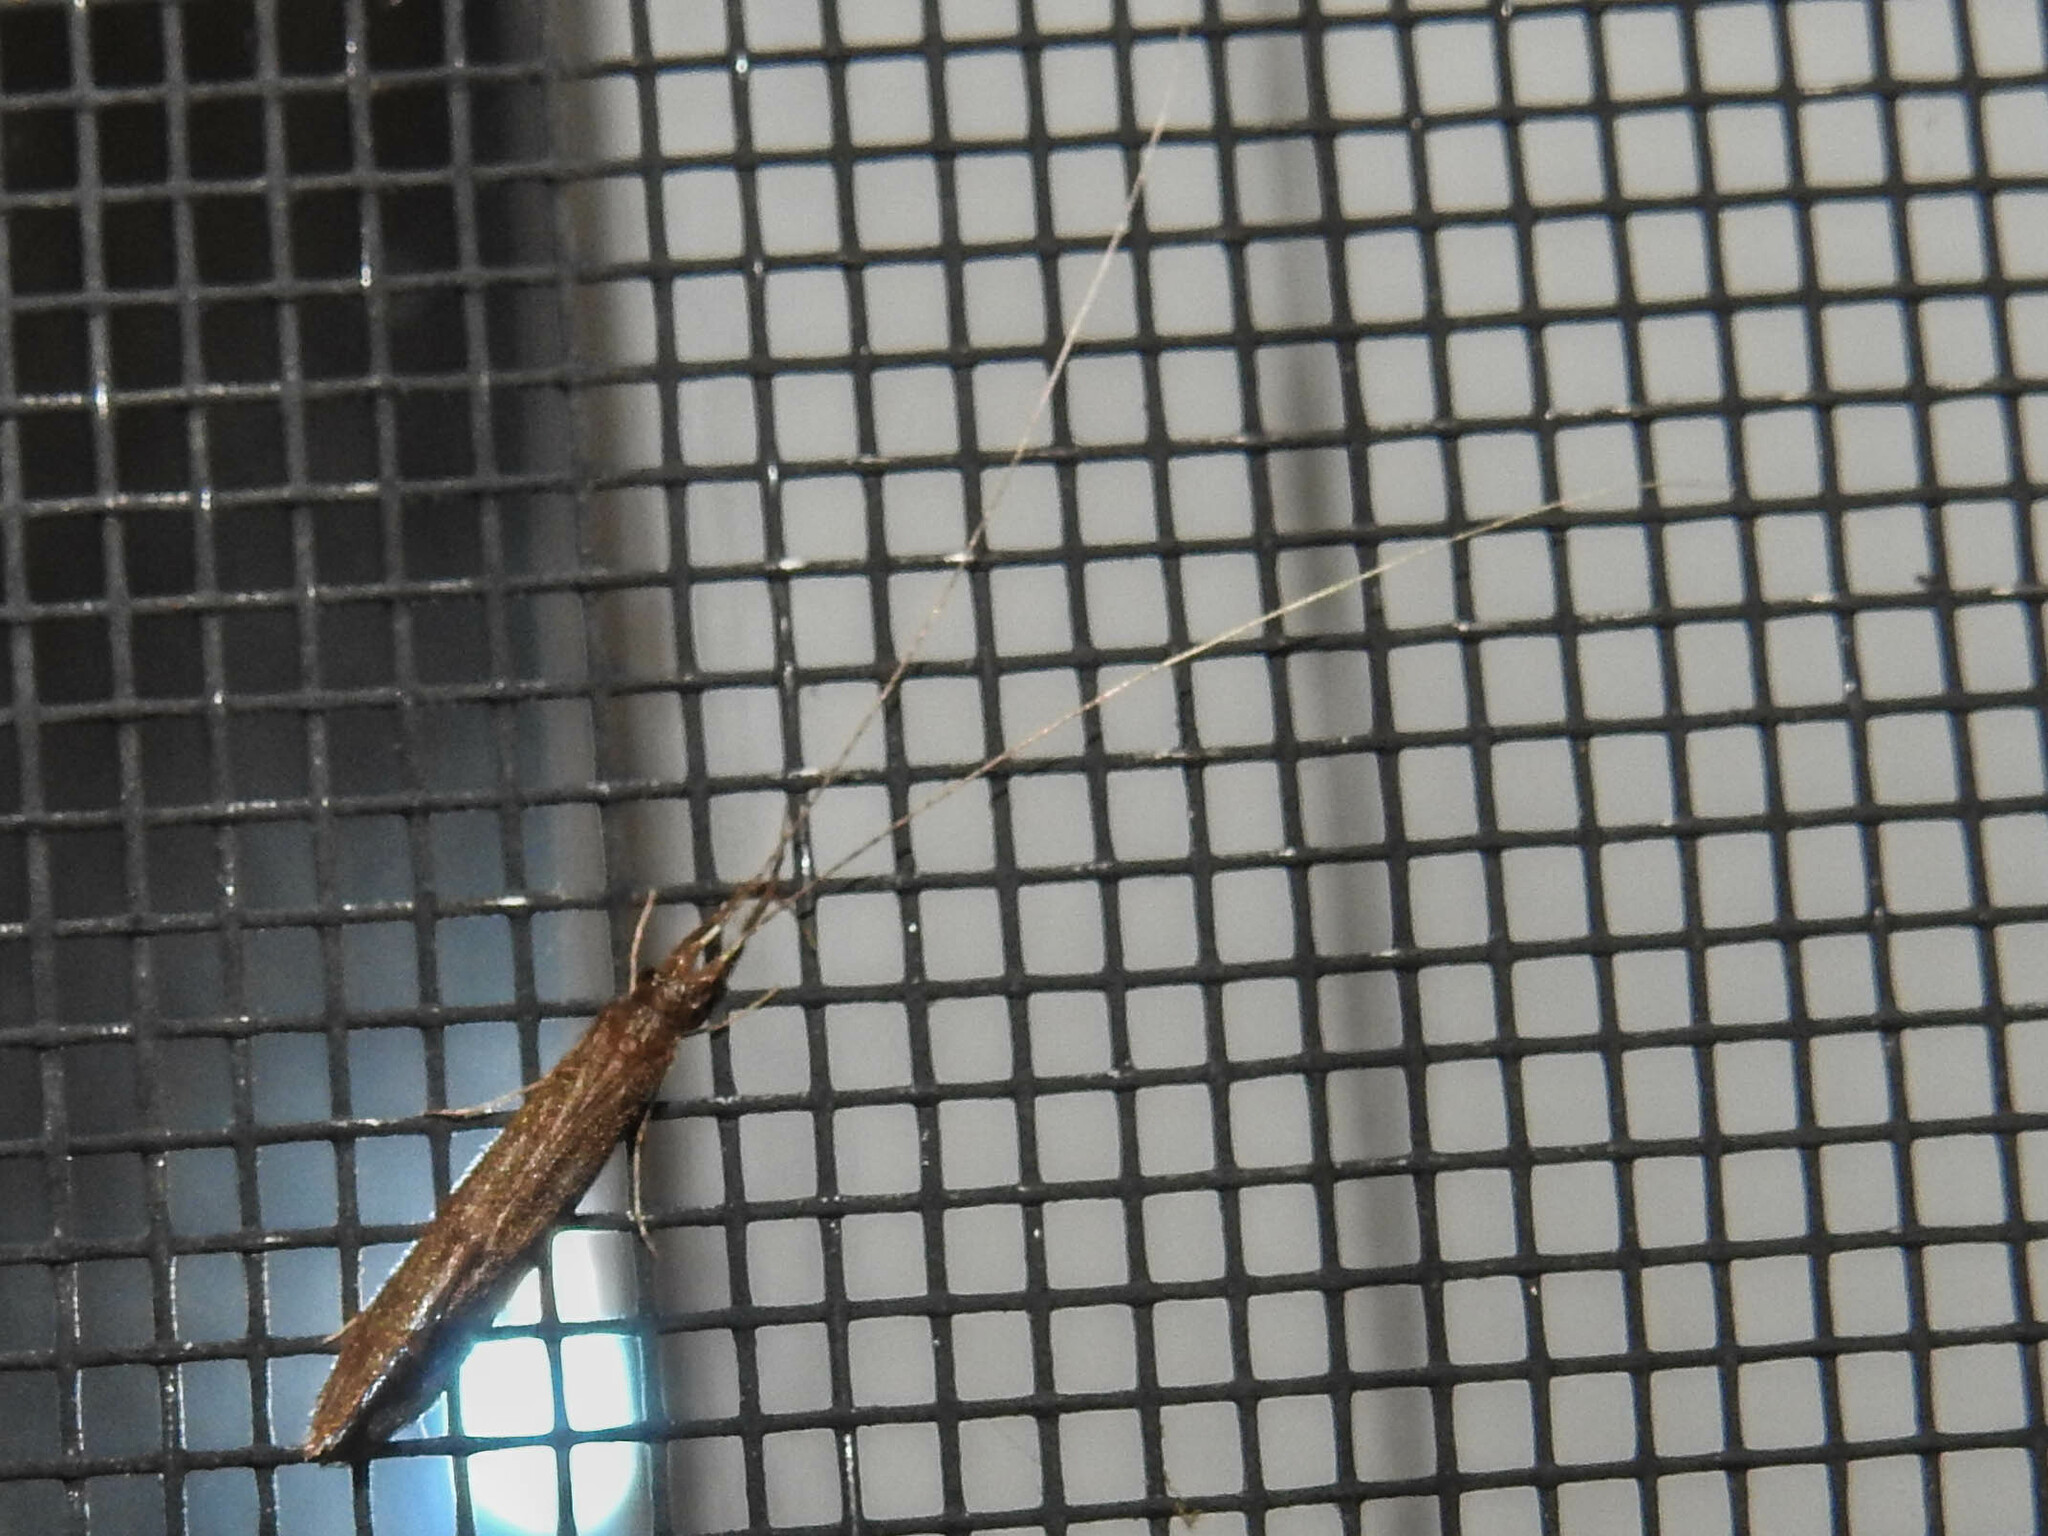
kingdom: Animalia
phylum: Arthropoda
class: Insecta
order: Trichoptera
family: Leptoceridae
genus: Leptocerus
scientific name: Leptocerus americanus
